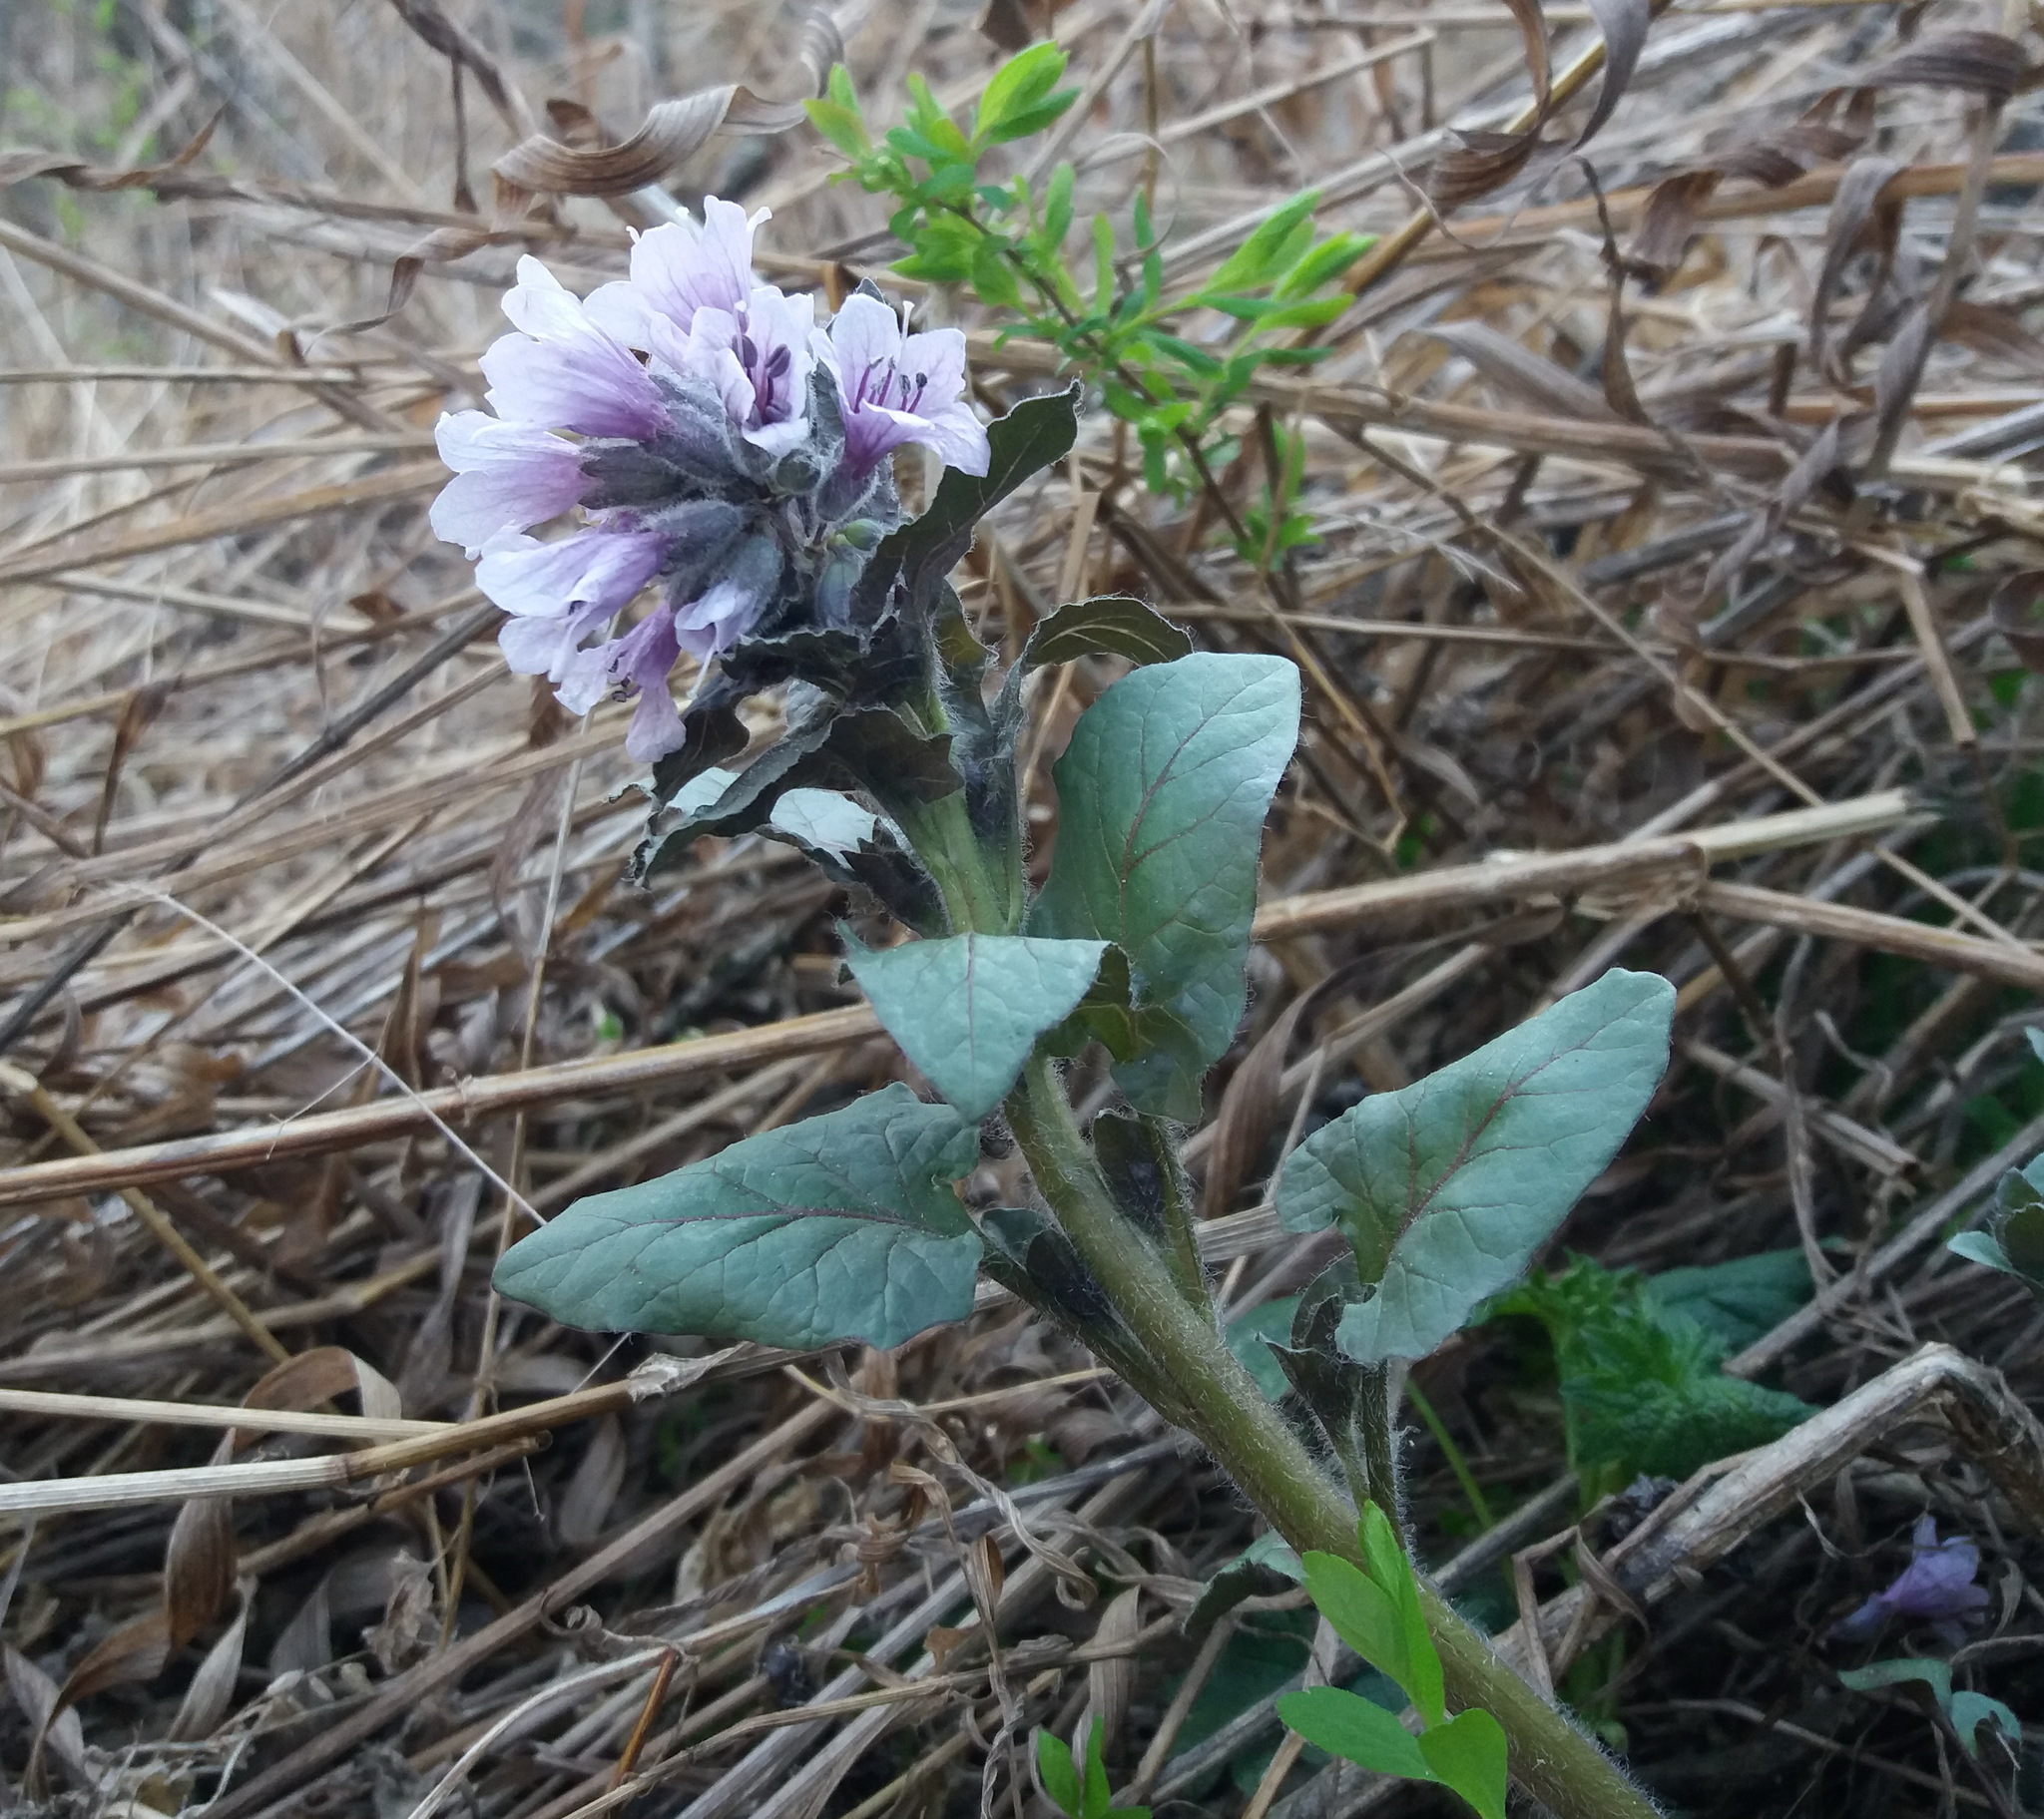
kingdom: Plantae
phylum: Tracheophyta
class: Magnoliopsida
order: Solanales
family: Solanaceae
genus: Physochlaina
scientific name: Physochlaina physaloides
